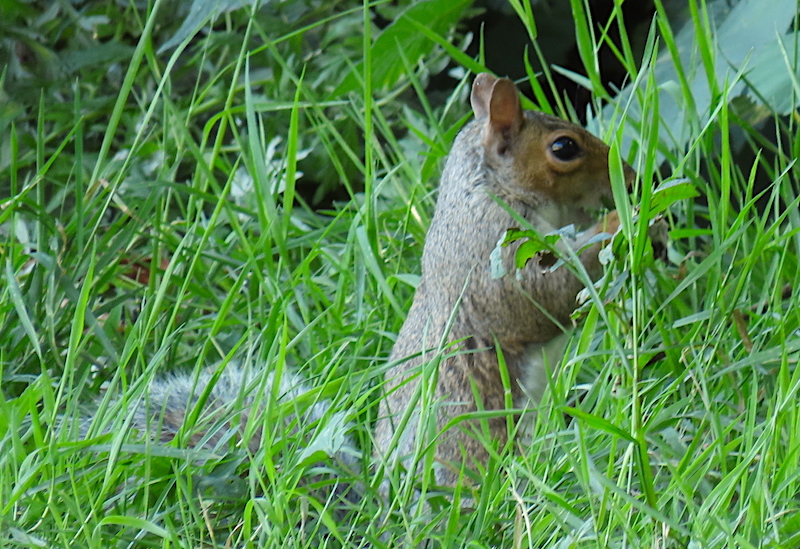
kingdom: Animalia
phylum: Chordata
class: Mammalia
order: Rodentia
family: Sciuridae
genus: Sciurus
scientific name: Sciurus carolinensis
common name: Eastern gray squirrel
